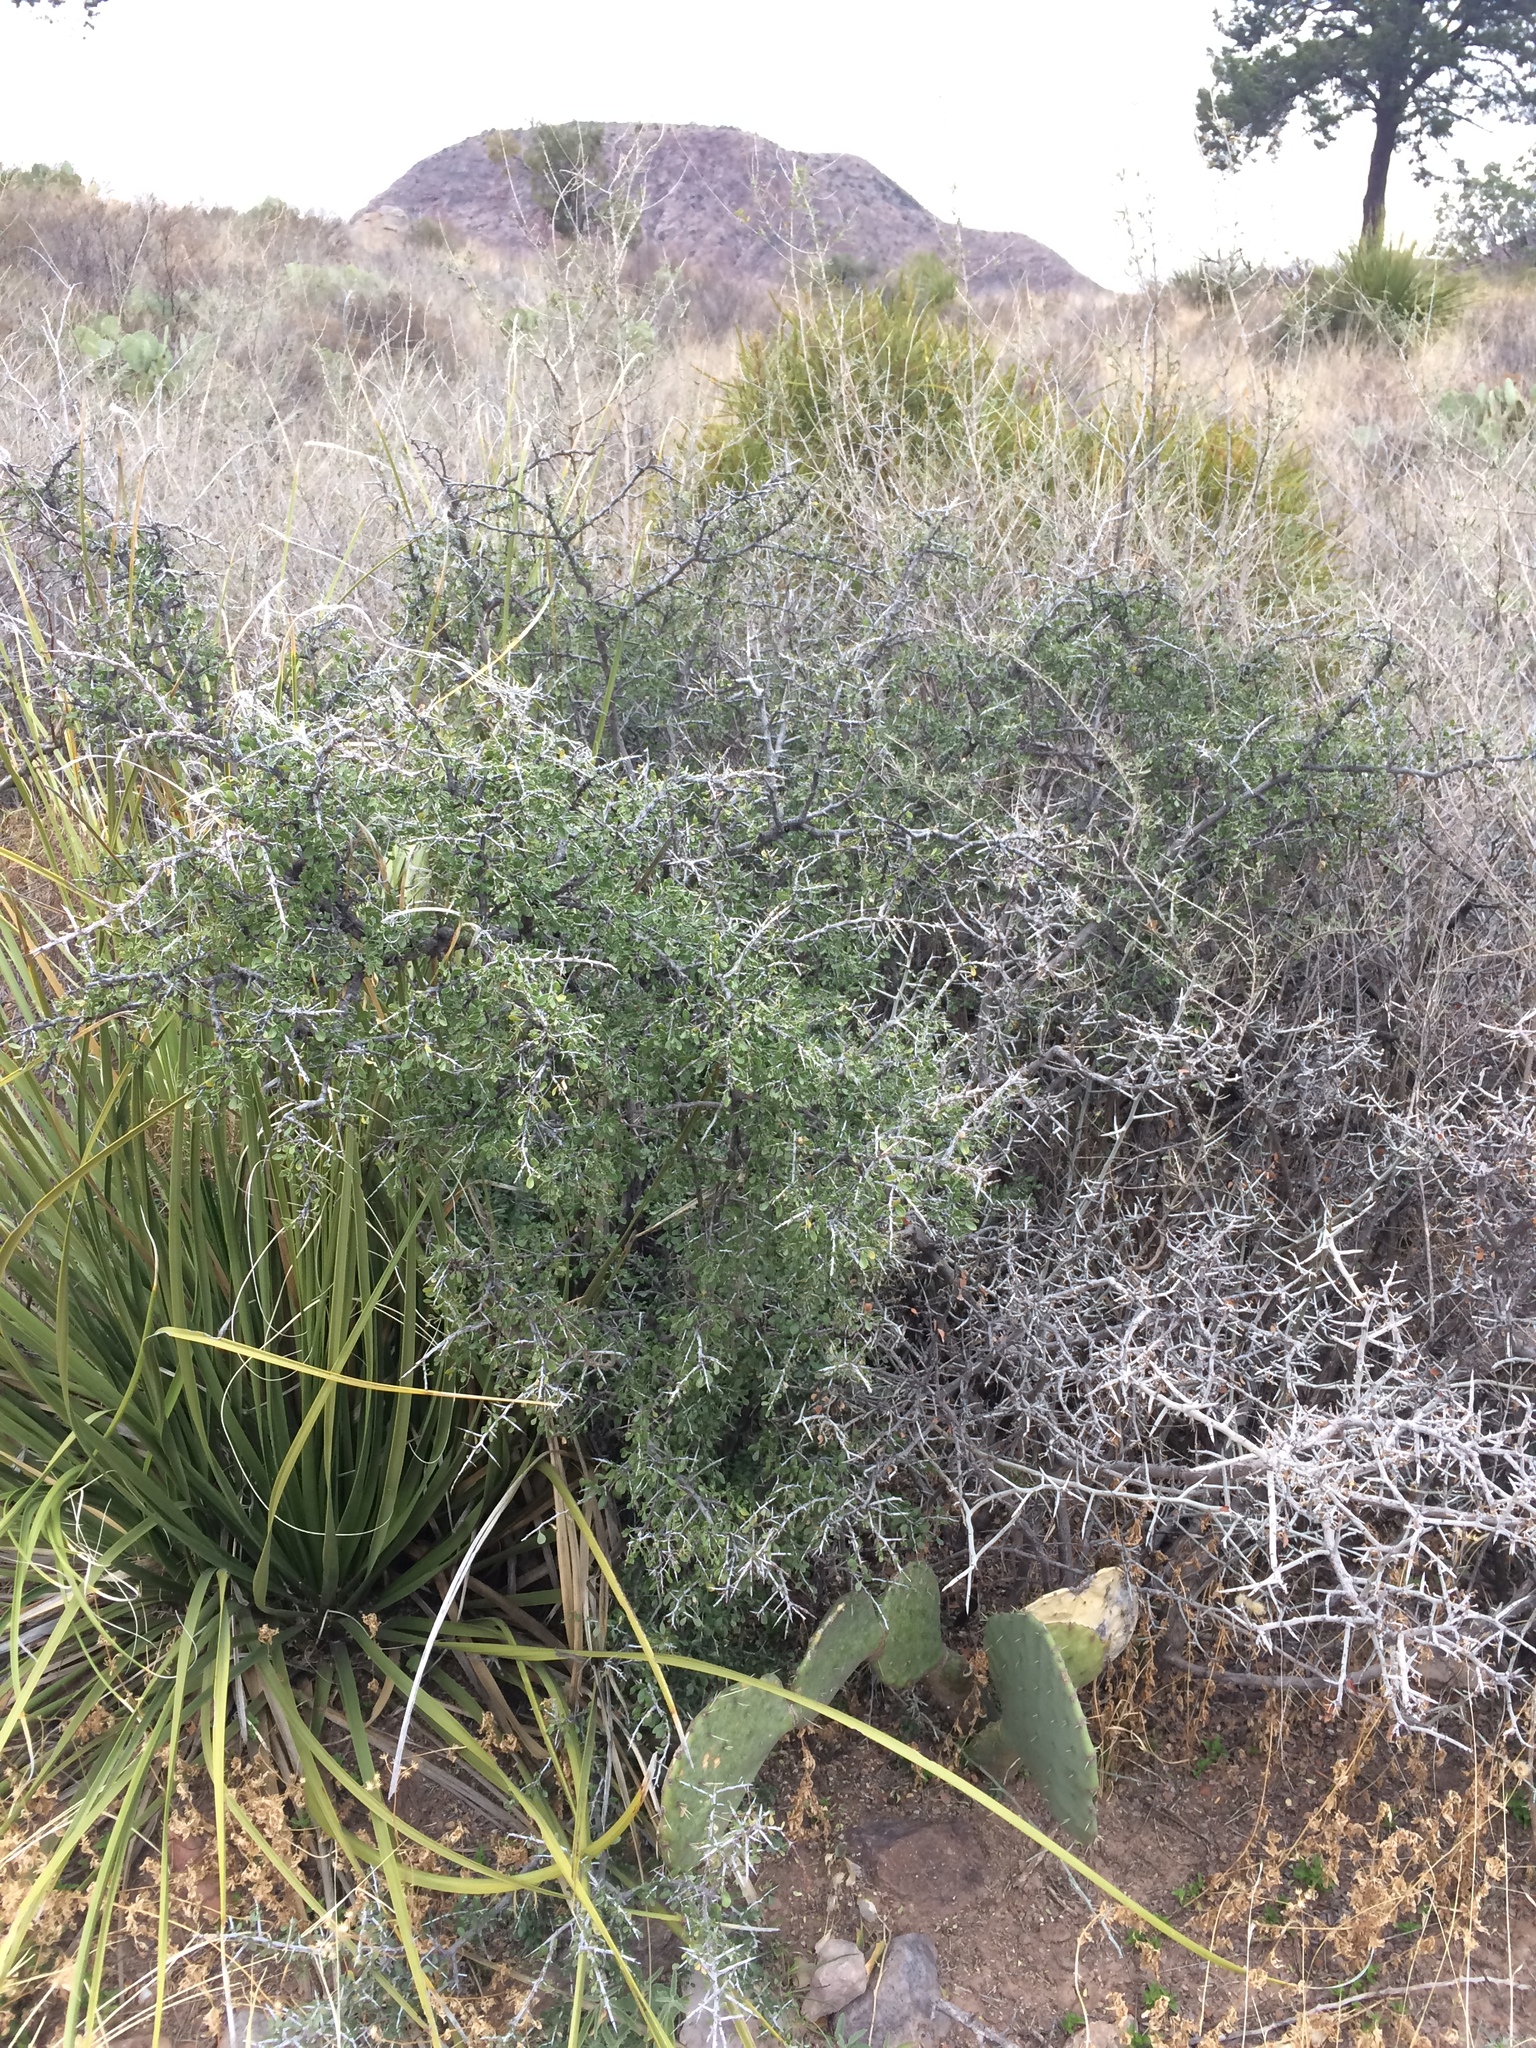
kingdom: Plantae
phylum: Tracheophyta
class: Magnoliopsida
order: Rosales
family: Rhamnaceae
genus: Condalia
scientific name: Condalia viridis
